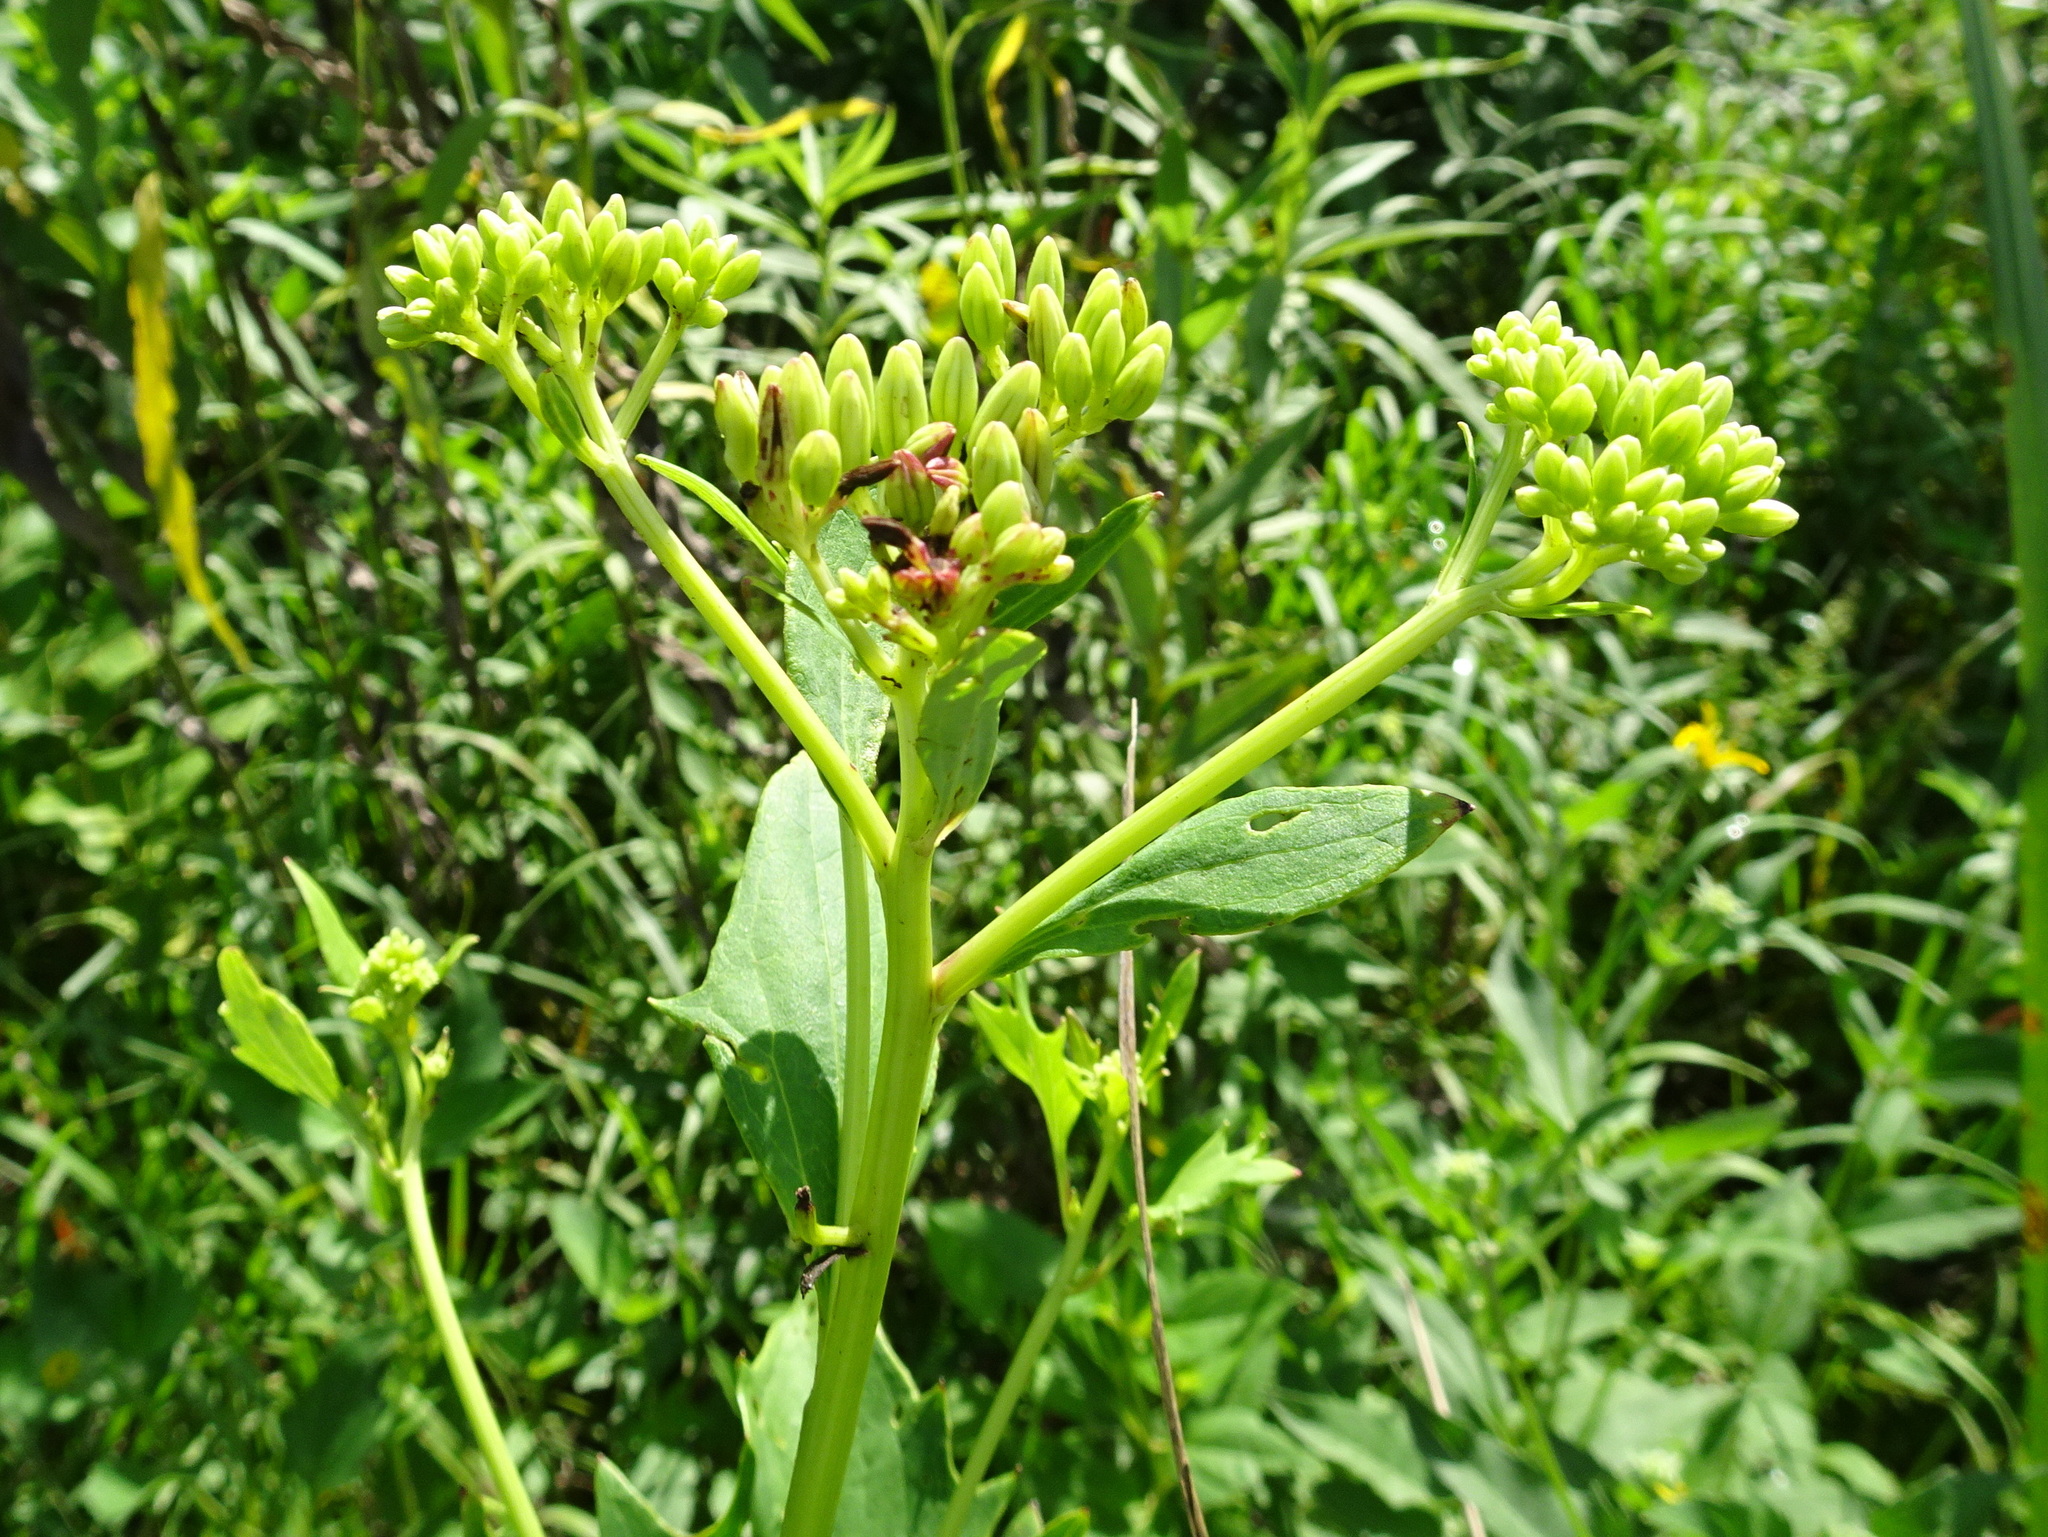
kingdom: Plantae
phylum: Tracheophyta
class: Magnoliopsida
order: Asterales
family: Asteraceae
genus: Arnoglossum
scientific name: Arnoglossum atriplicifolium
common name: Pale indian-plantain
